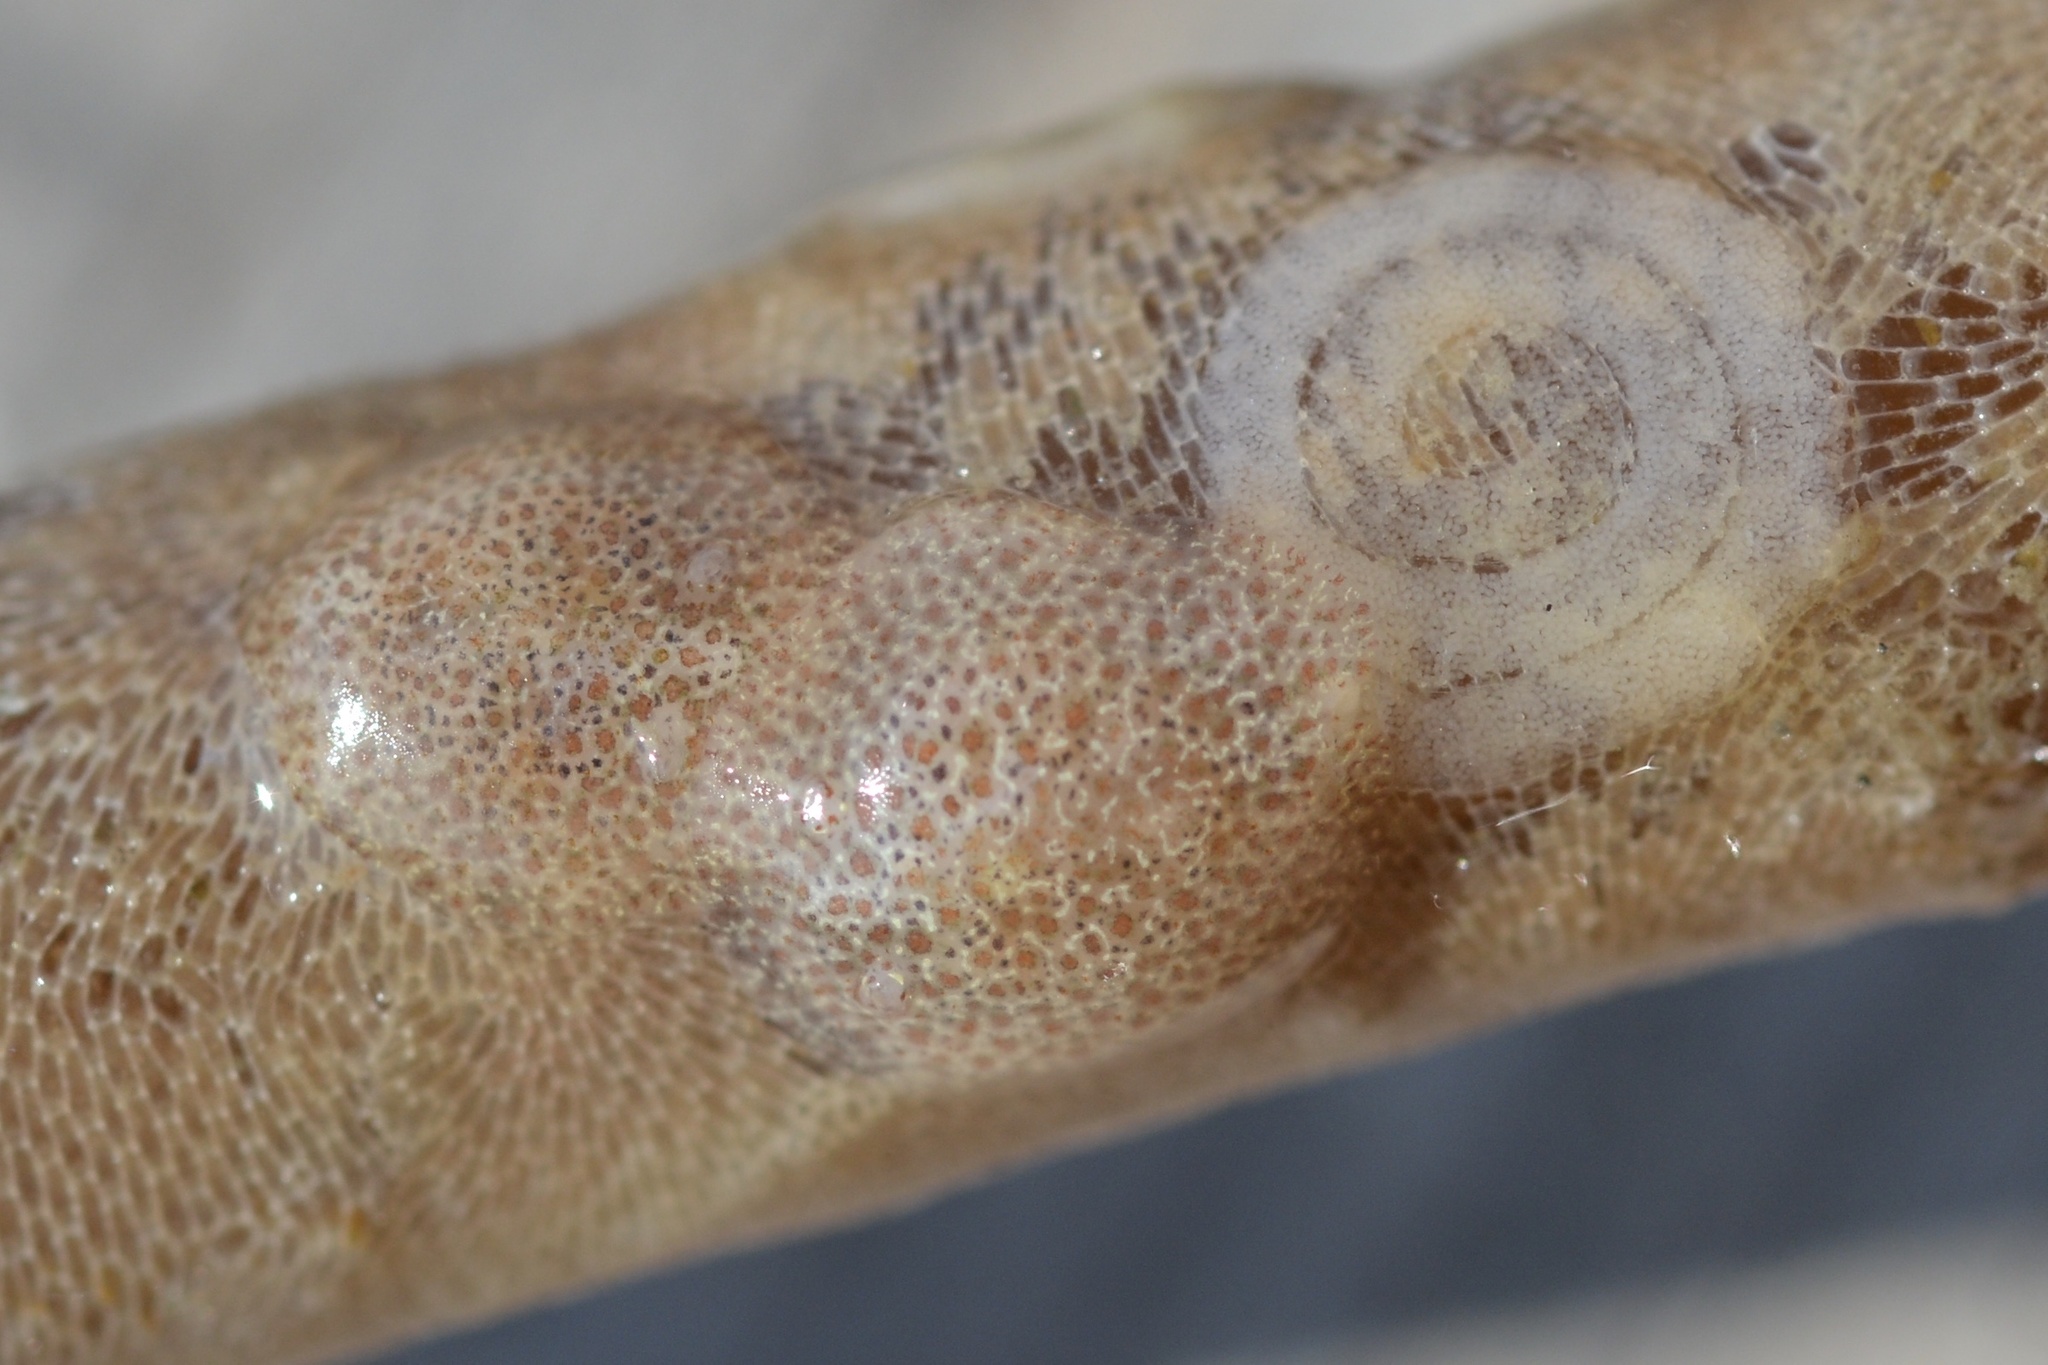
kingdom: Animalia
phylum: Mollusca
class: Gastropoda
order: Nudibranchia
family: Corambidae
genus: Corambe
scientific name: Corambe pacifica
